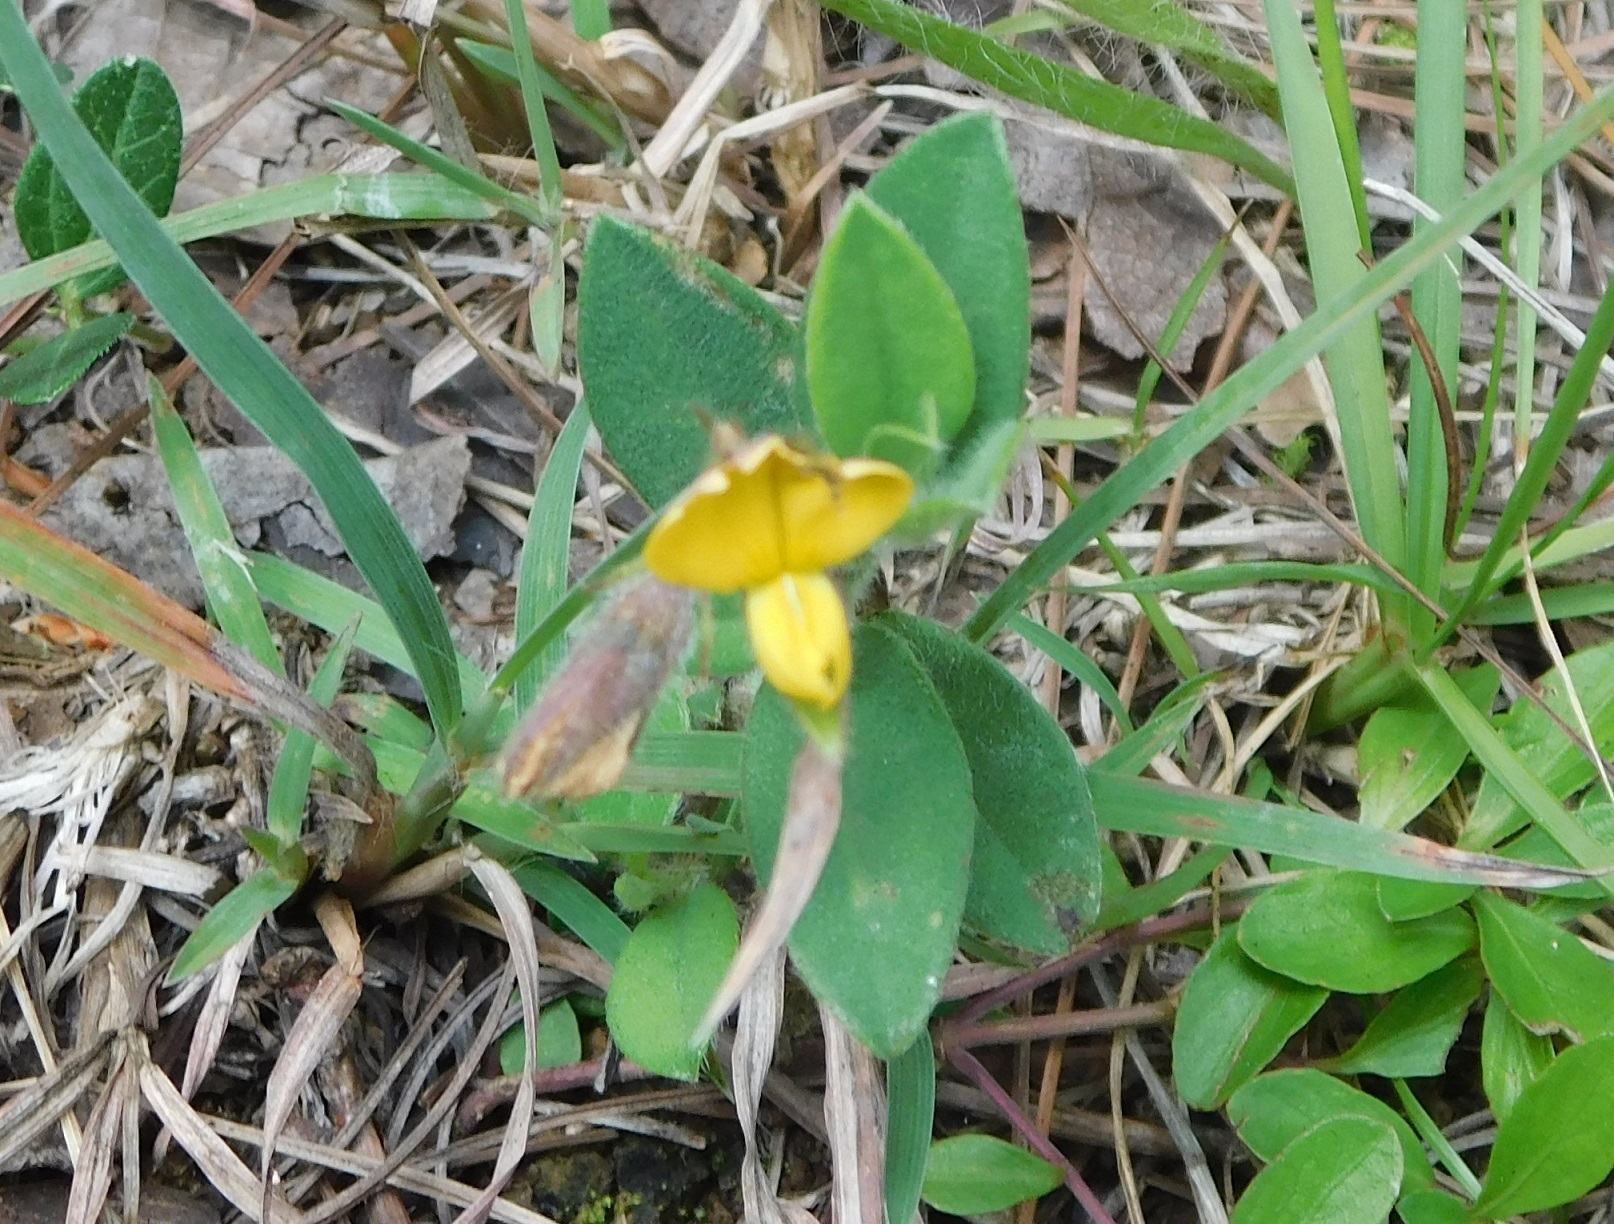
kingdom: Plantae
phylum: Tracheophyta
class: Magnoliopsida
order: Fabales
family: Fabaceae
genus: Crotalaria
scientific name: Crotalaria bupleurifolia
